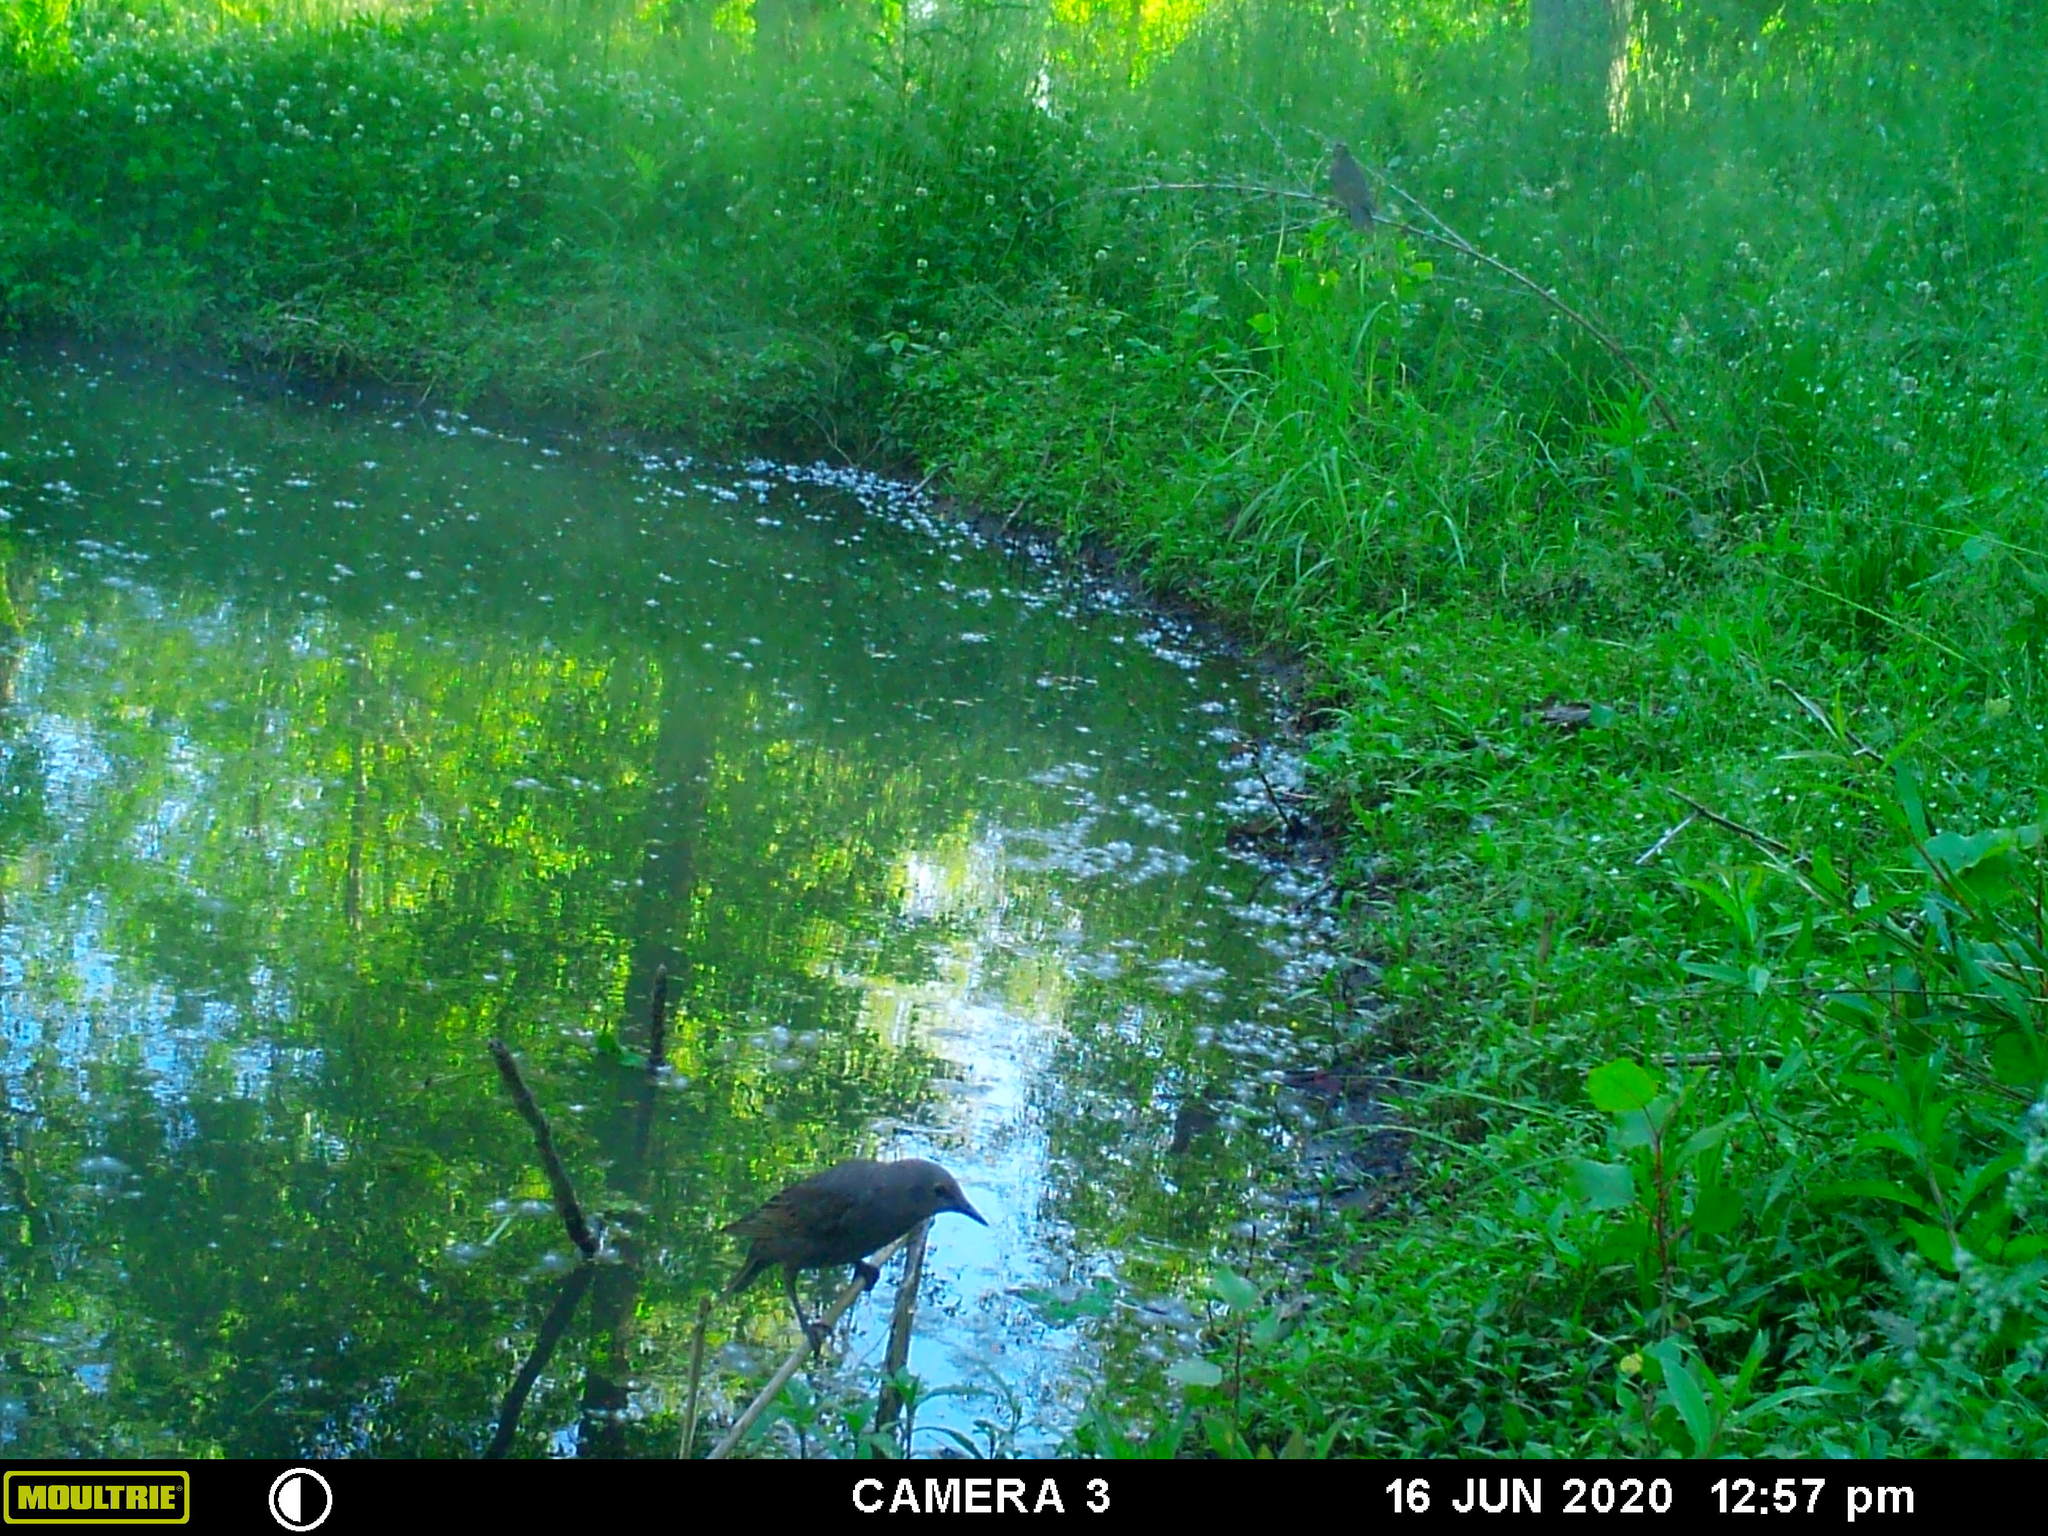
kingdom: Animalia
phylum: Chordata
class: Aves
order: Passeriformes
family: Mimidae
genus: Dumetella
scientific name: Dumetella carolinensis
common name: Gray catbird
